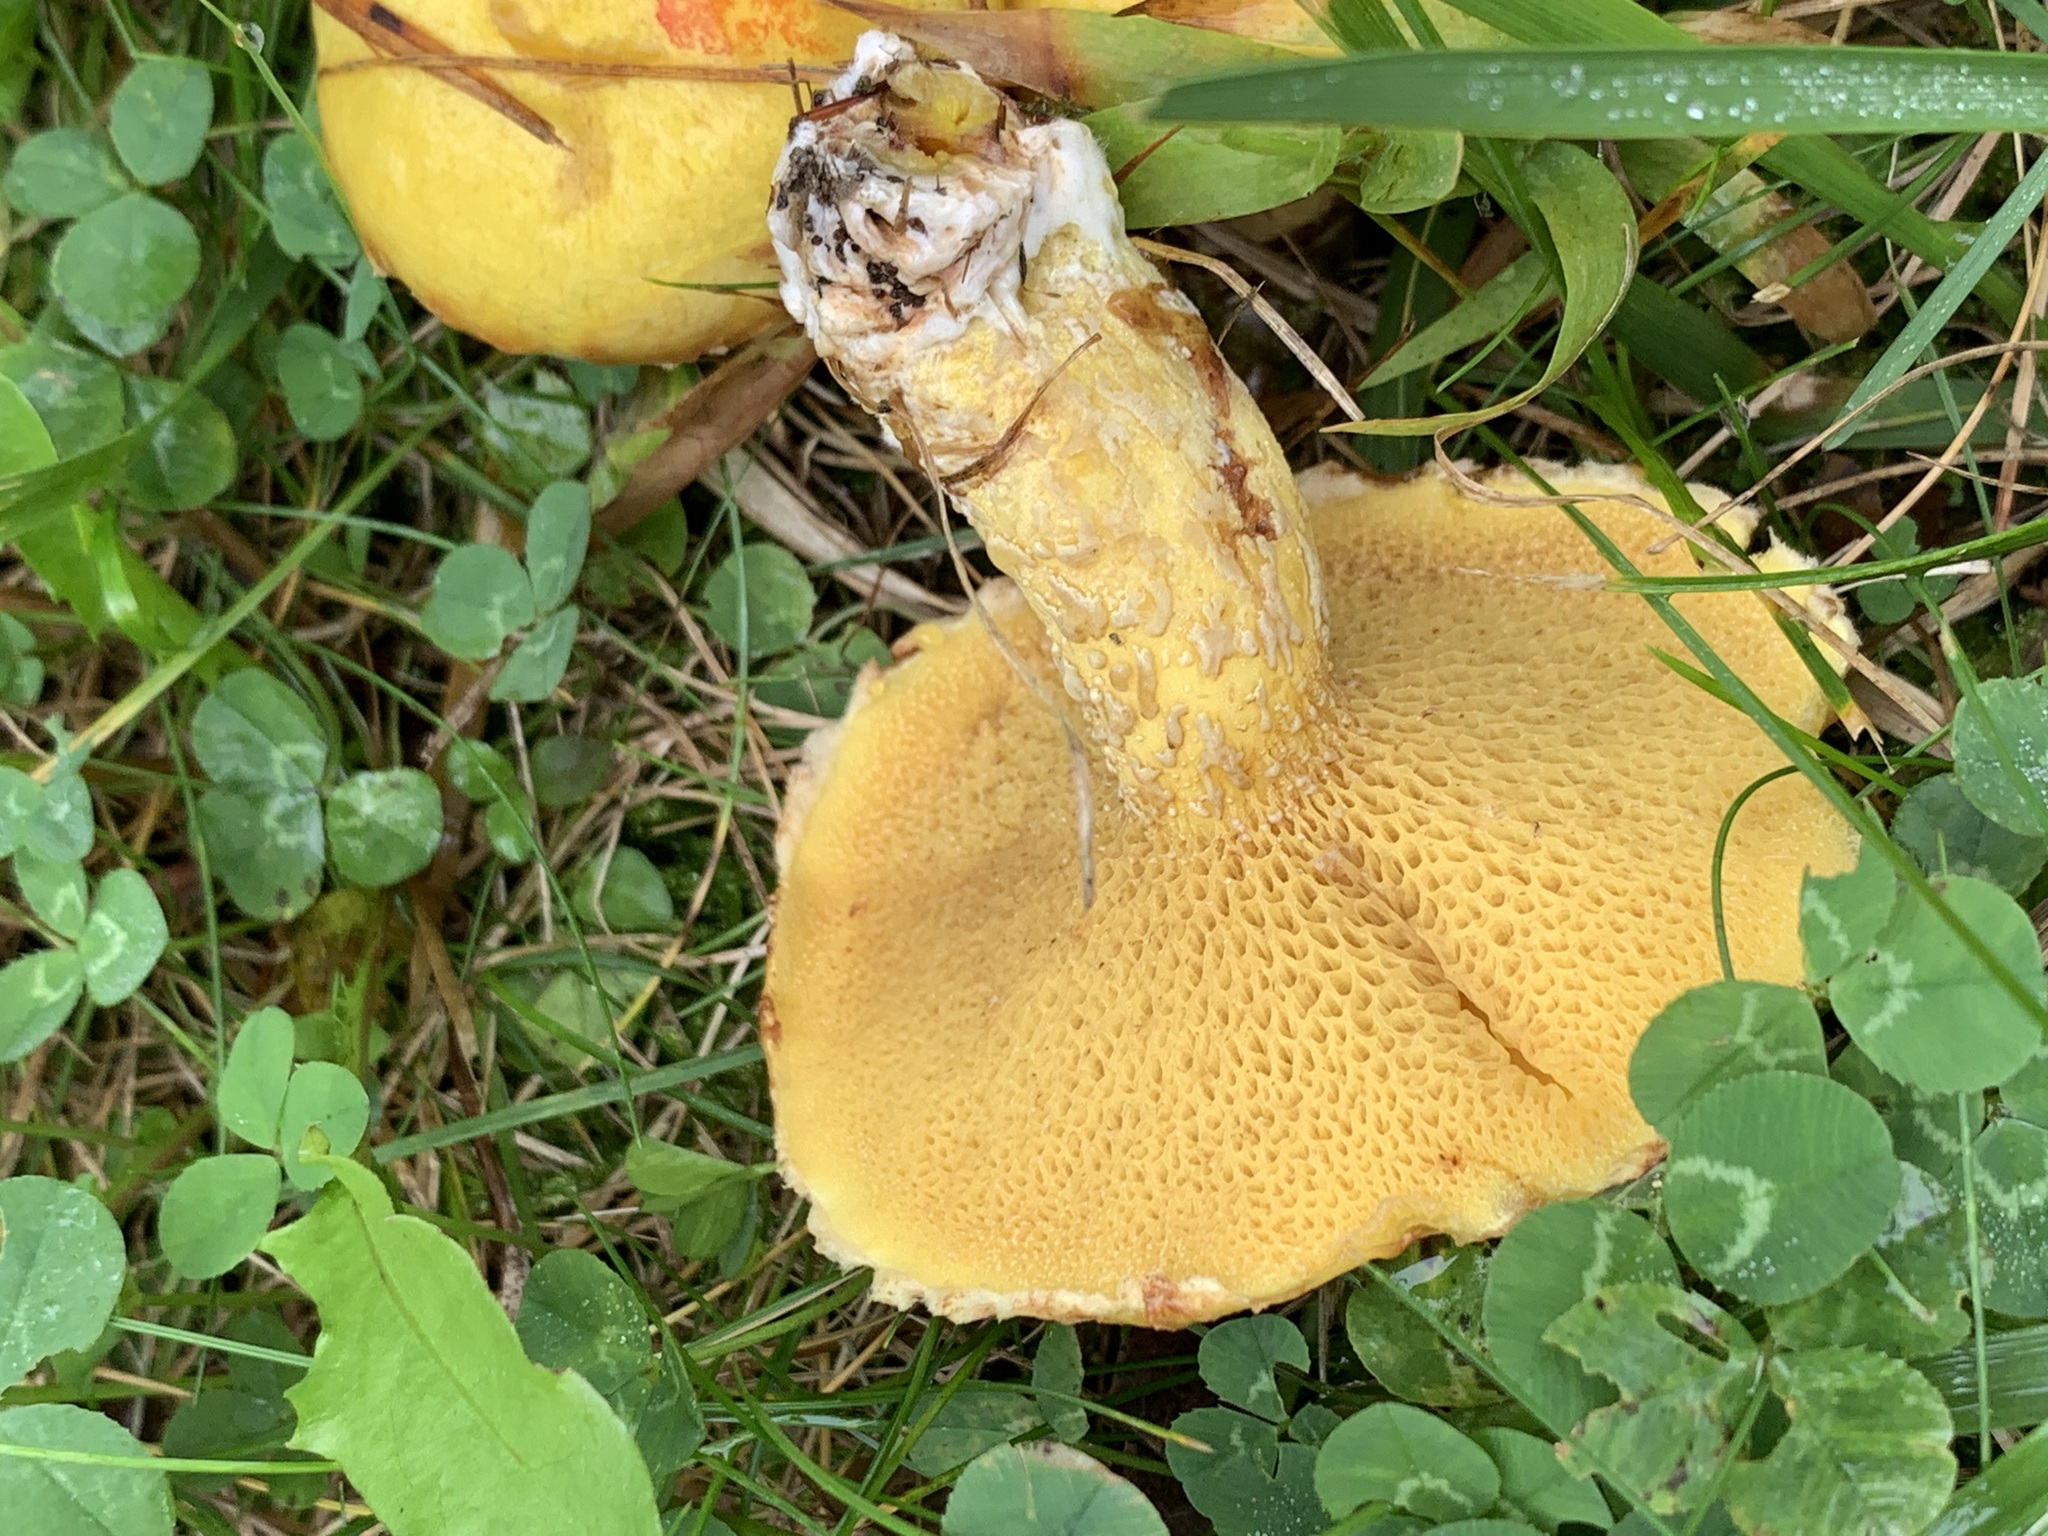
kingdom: Fungi
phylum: Basidiomycota
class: Agaricomycetes
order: Boletales
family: Suillaceae
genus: Suillus
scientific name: Suillus americanus
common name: Chicken fat mushroom
